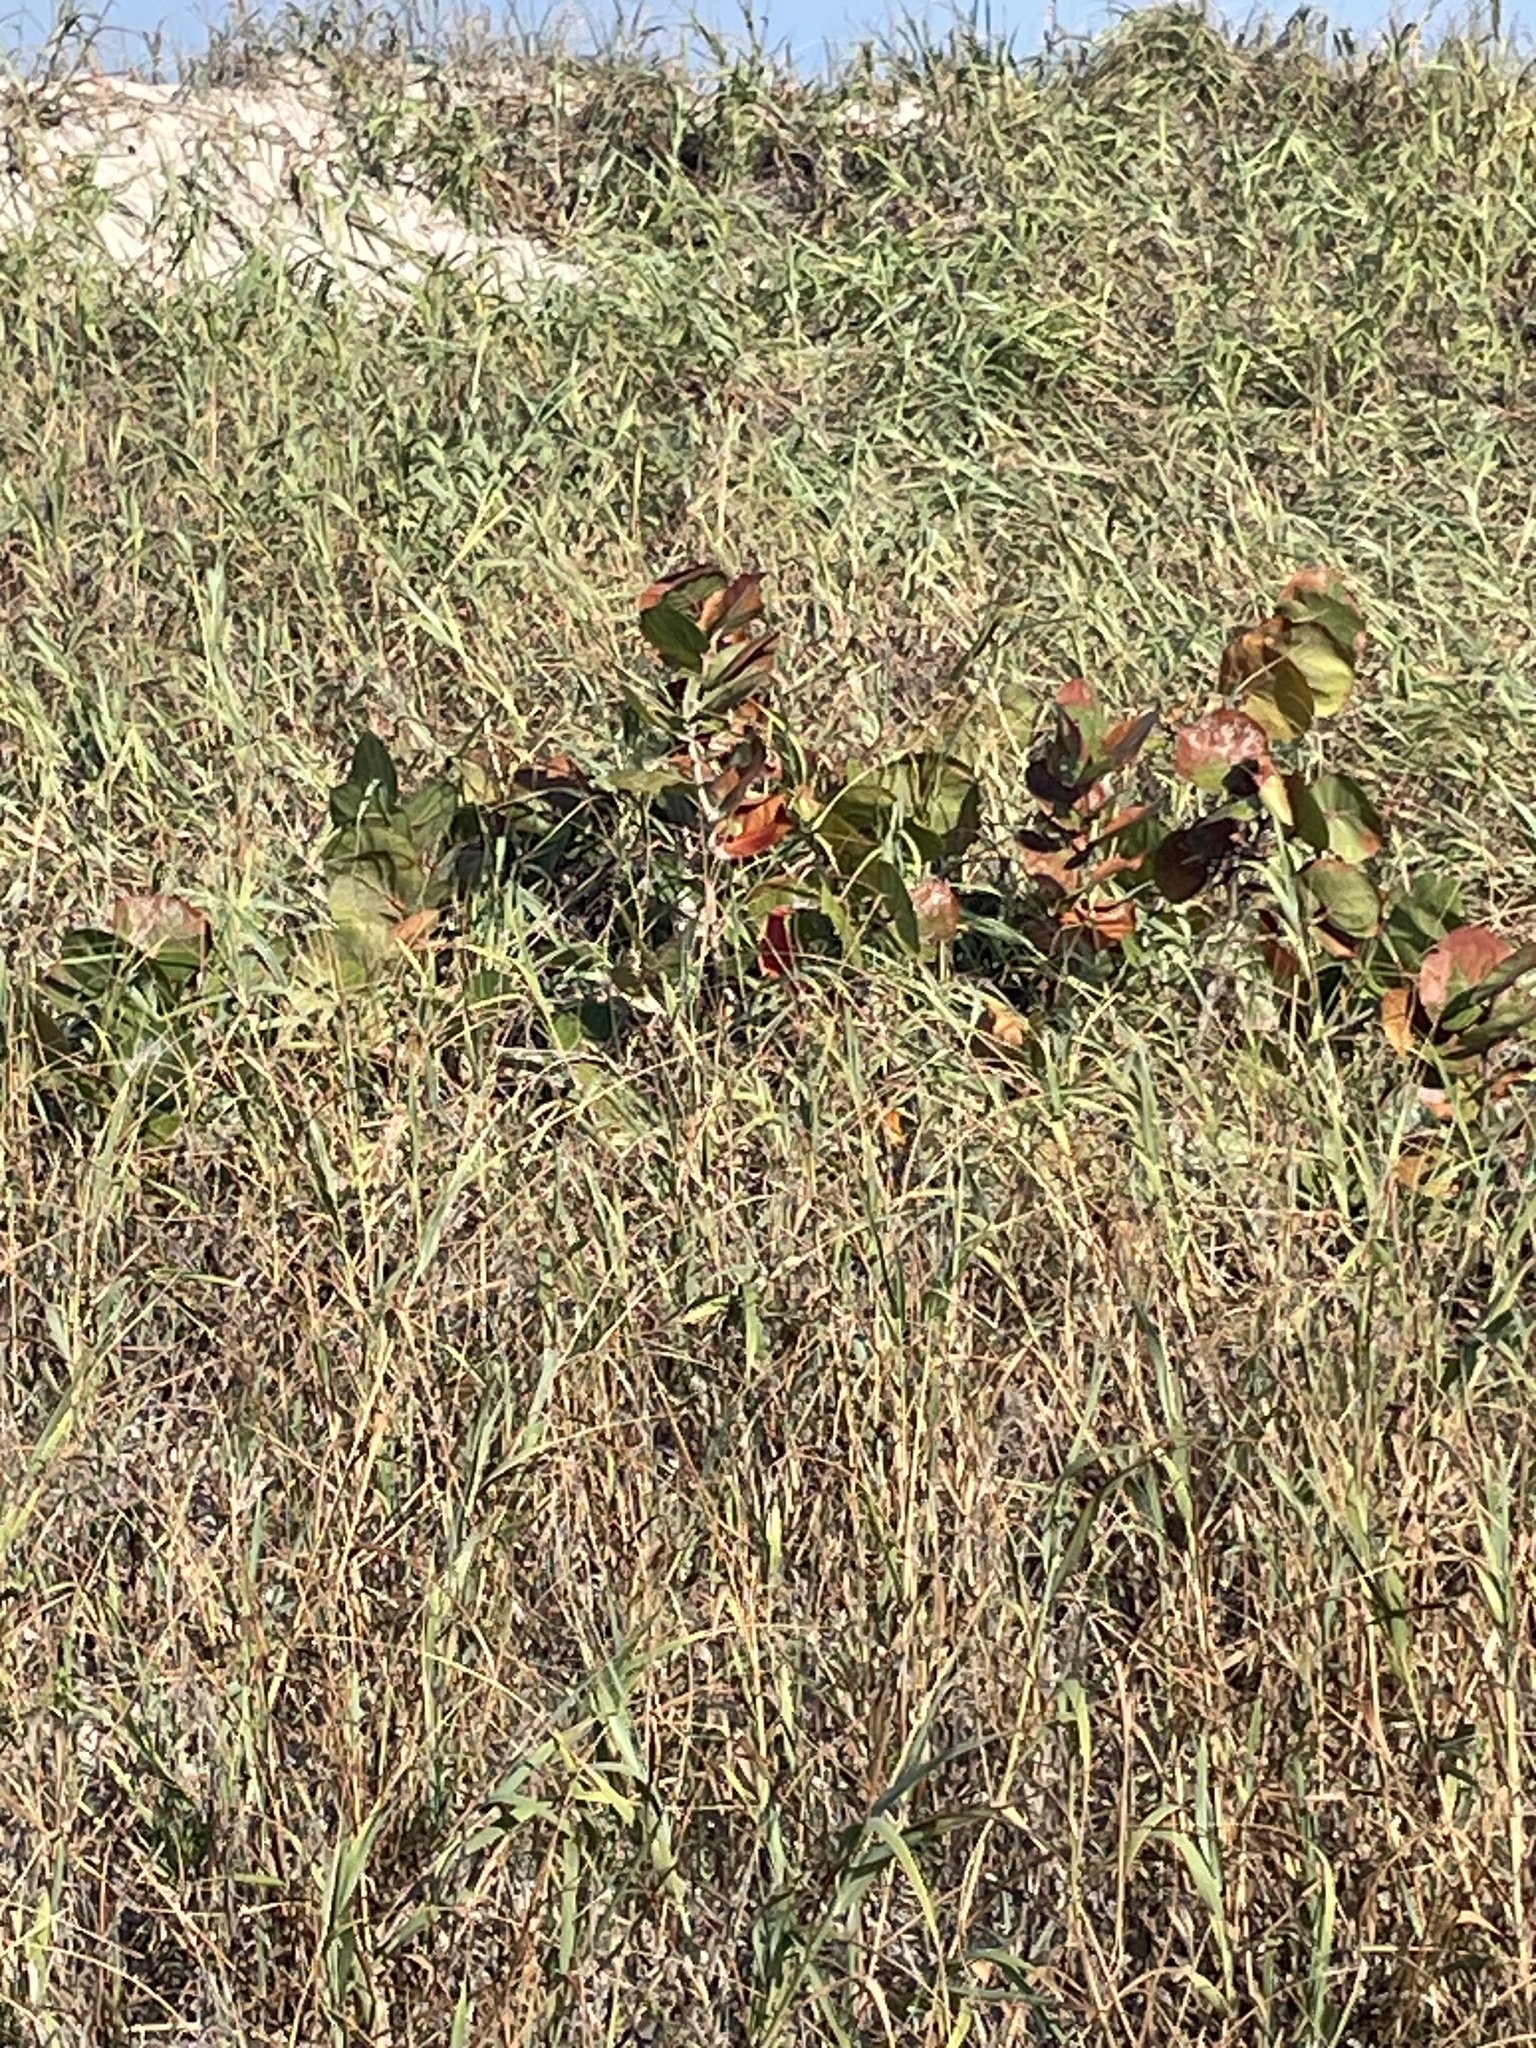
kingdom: Plantae
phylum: Tracheophyta
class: Magnoliopsida
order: Caryophyllales
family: Polygonaceae
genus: Coccoloba
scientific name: Coccoloba uvifera
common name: Seagrape
